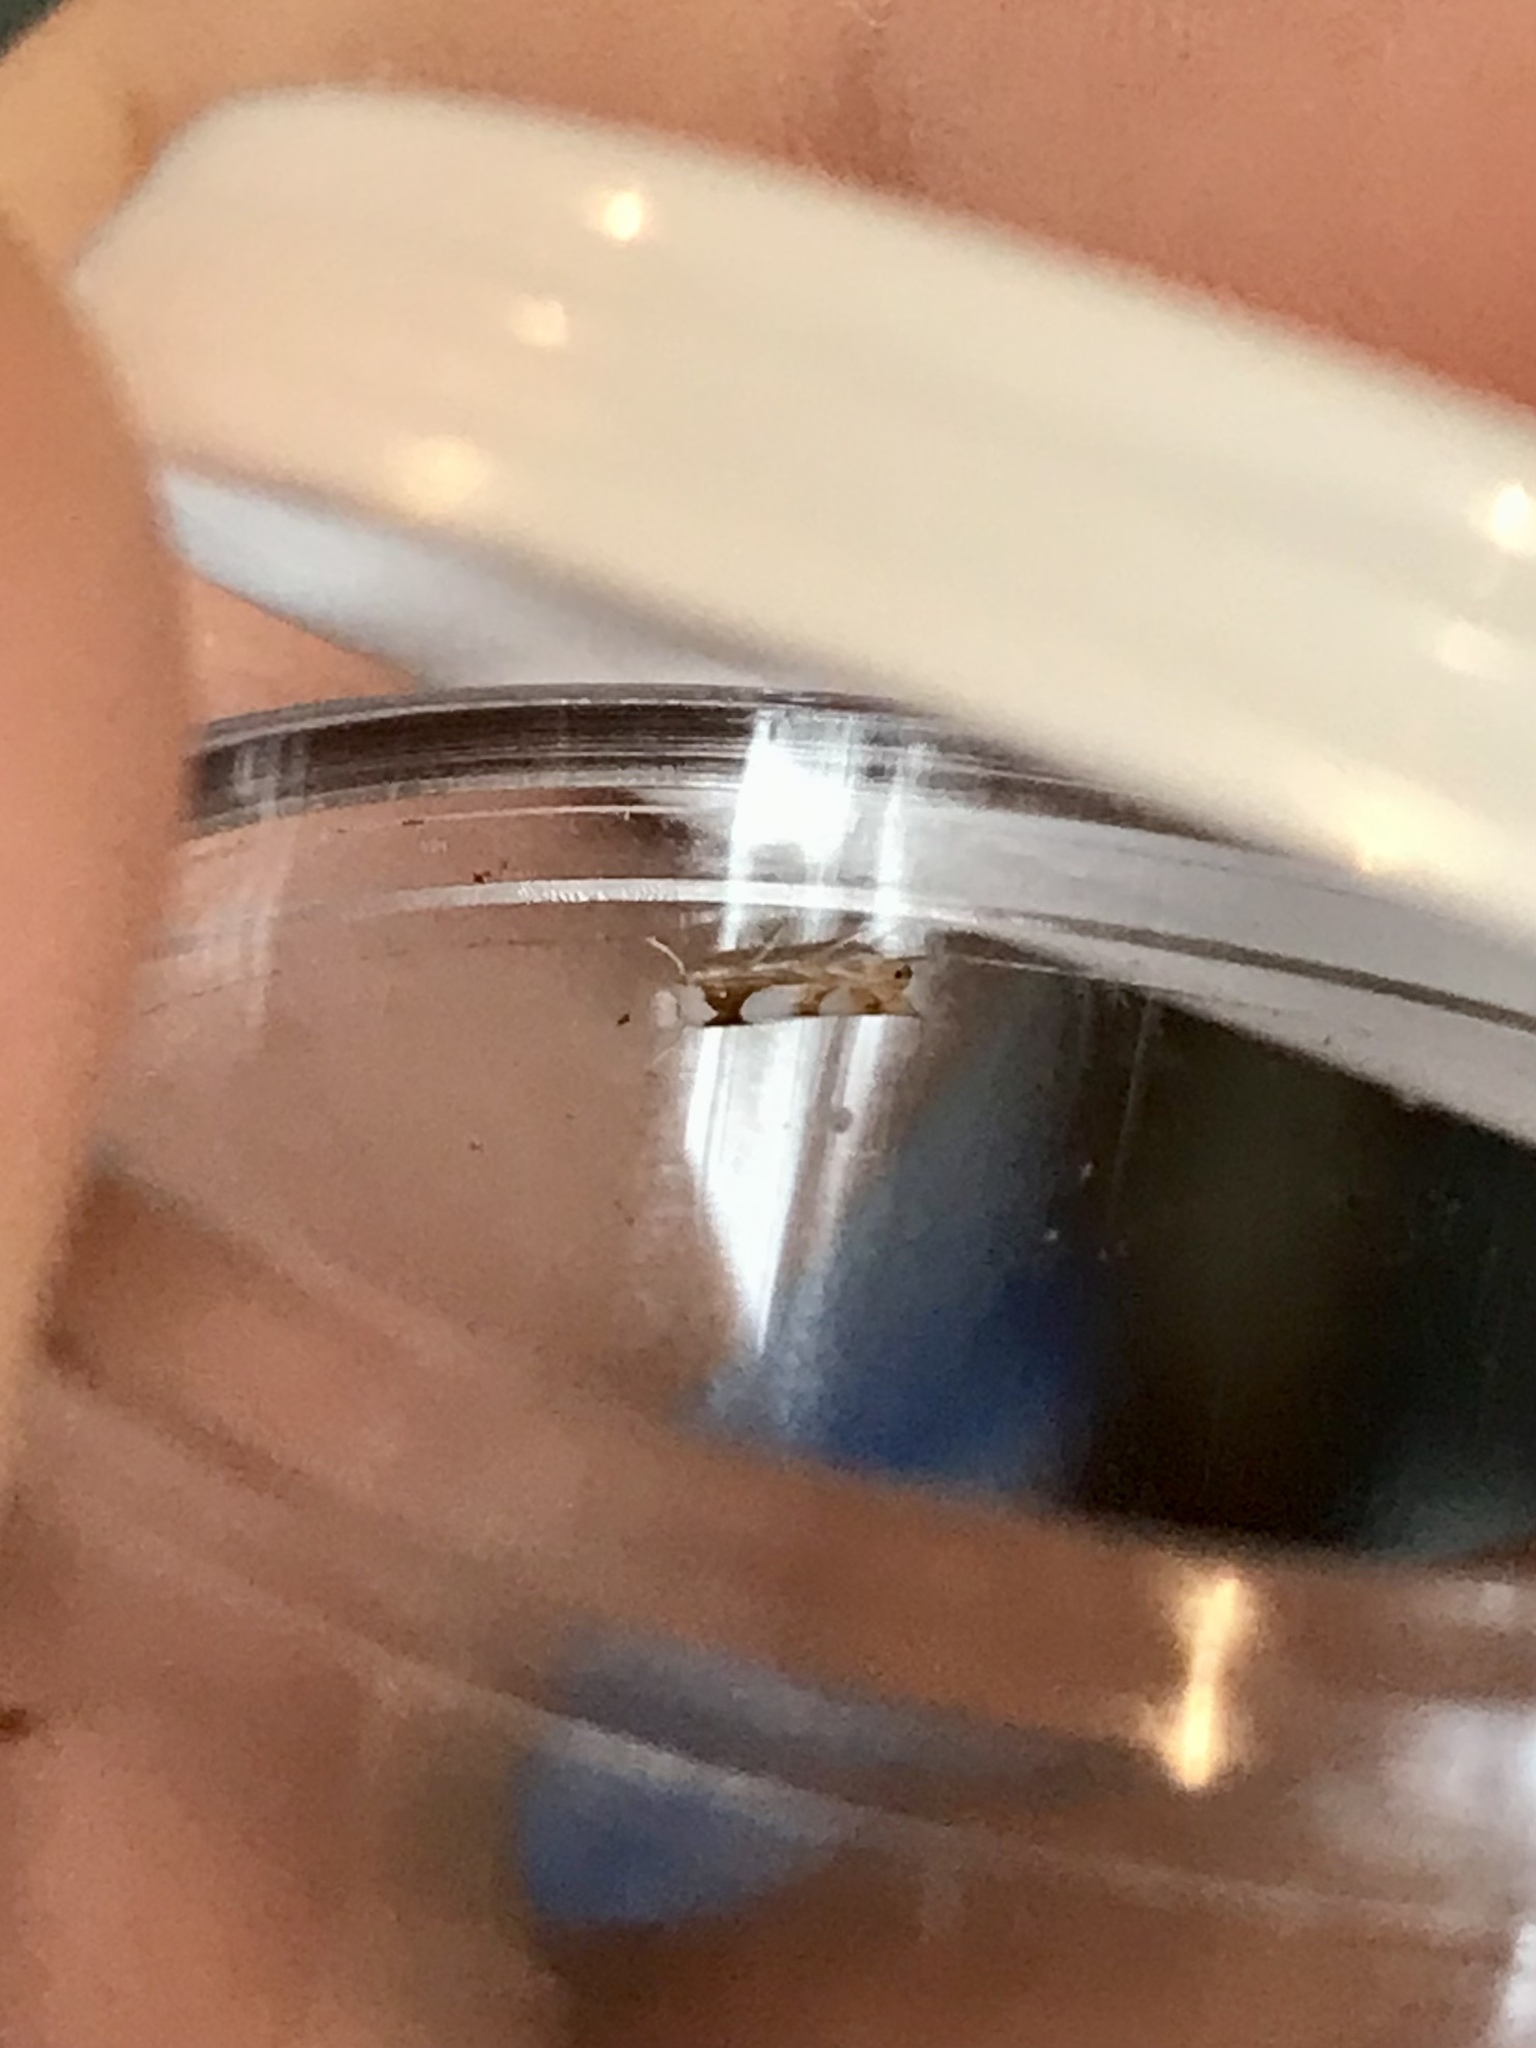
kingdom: Animalia
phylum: Arthropoda
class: Insecta
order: Lepidoptera
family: Gracillariidae
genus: Phyllonorycter
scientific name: Phyllonorycter fitchella
